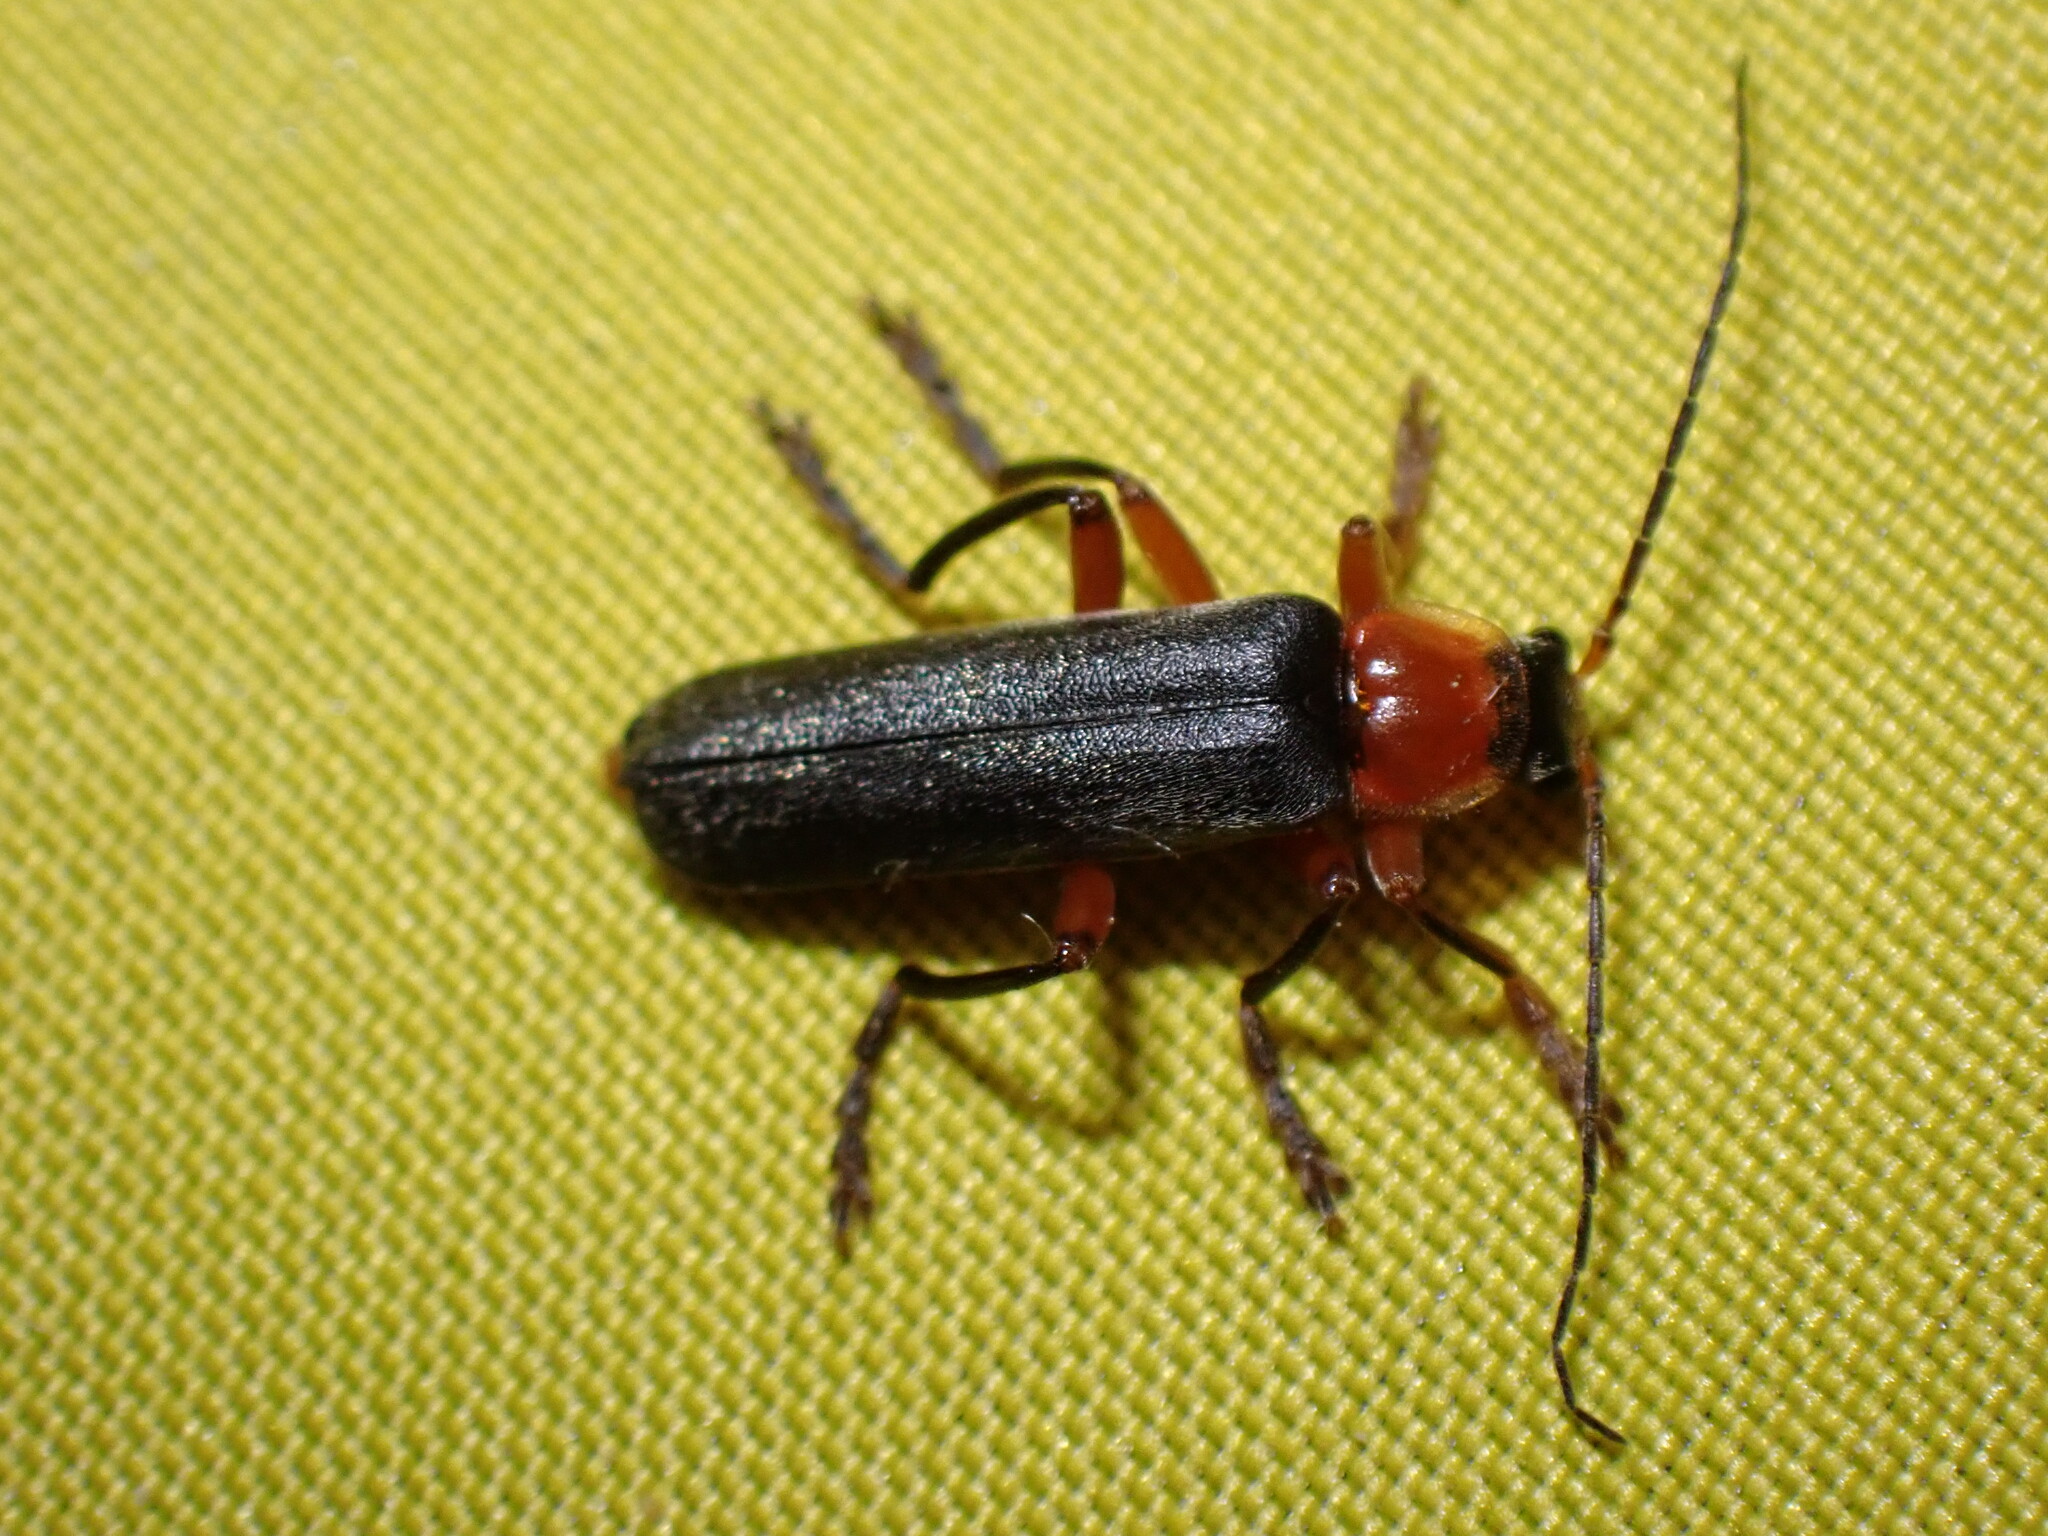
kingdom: Animalia
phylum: Arthropoda
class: Insecta
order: Coleoptera
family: Cantharidae
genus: Cantharis
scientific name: Cantharis pellucida
